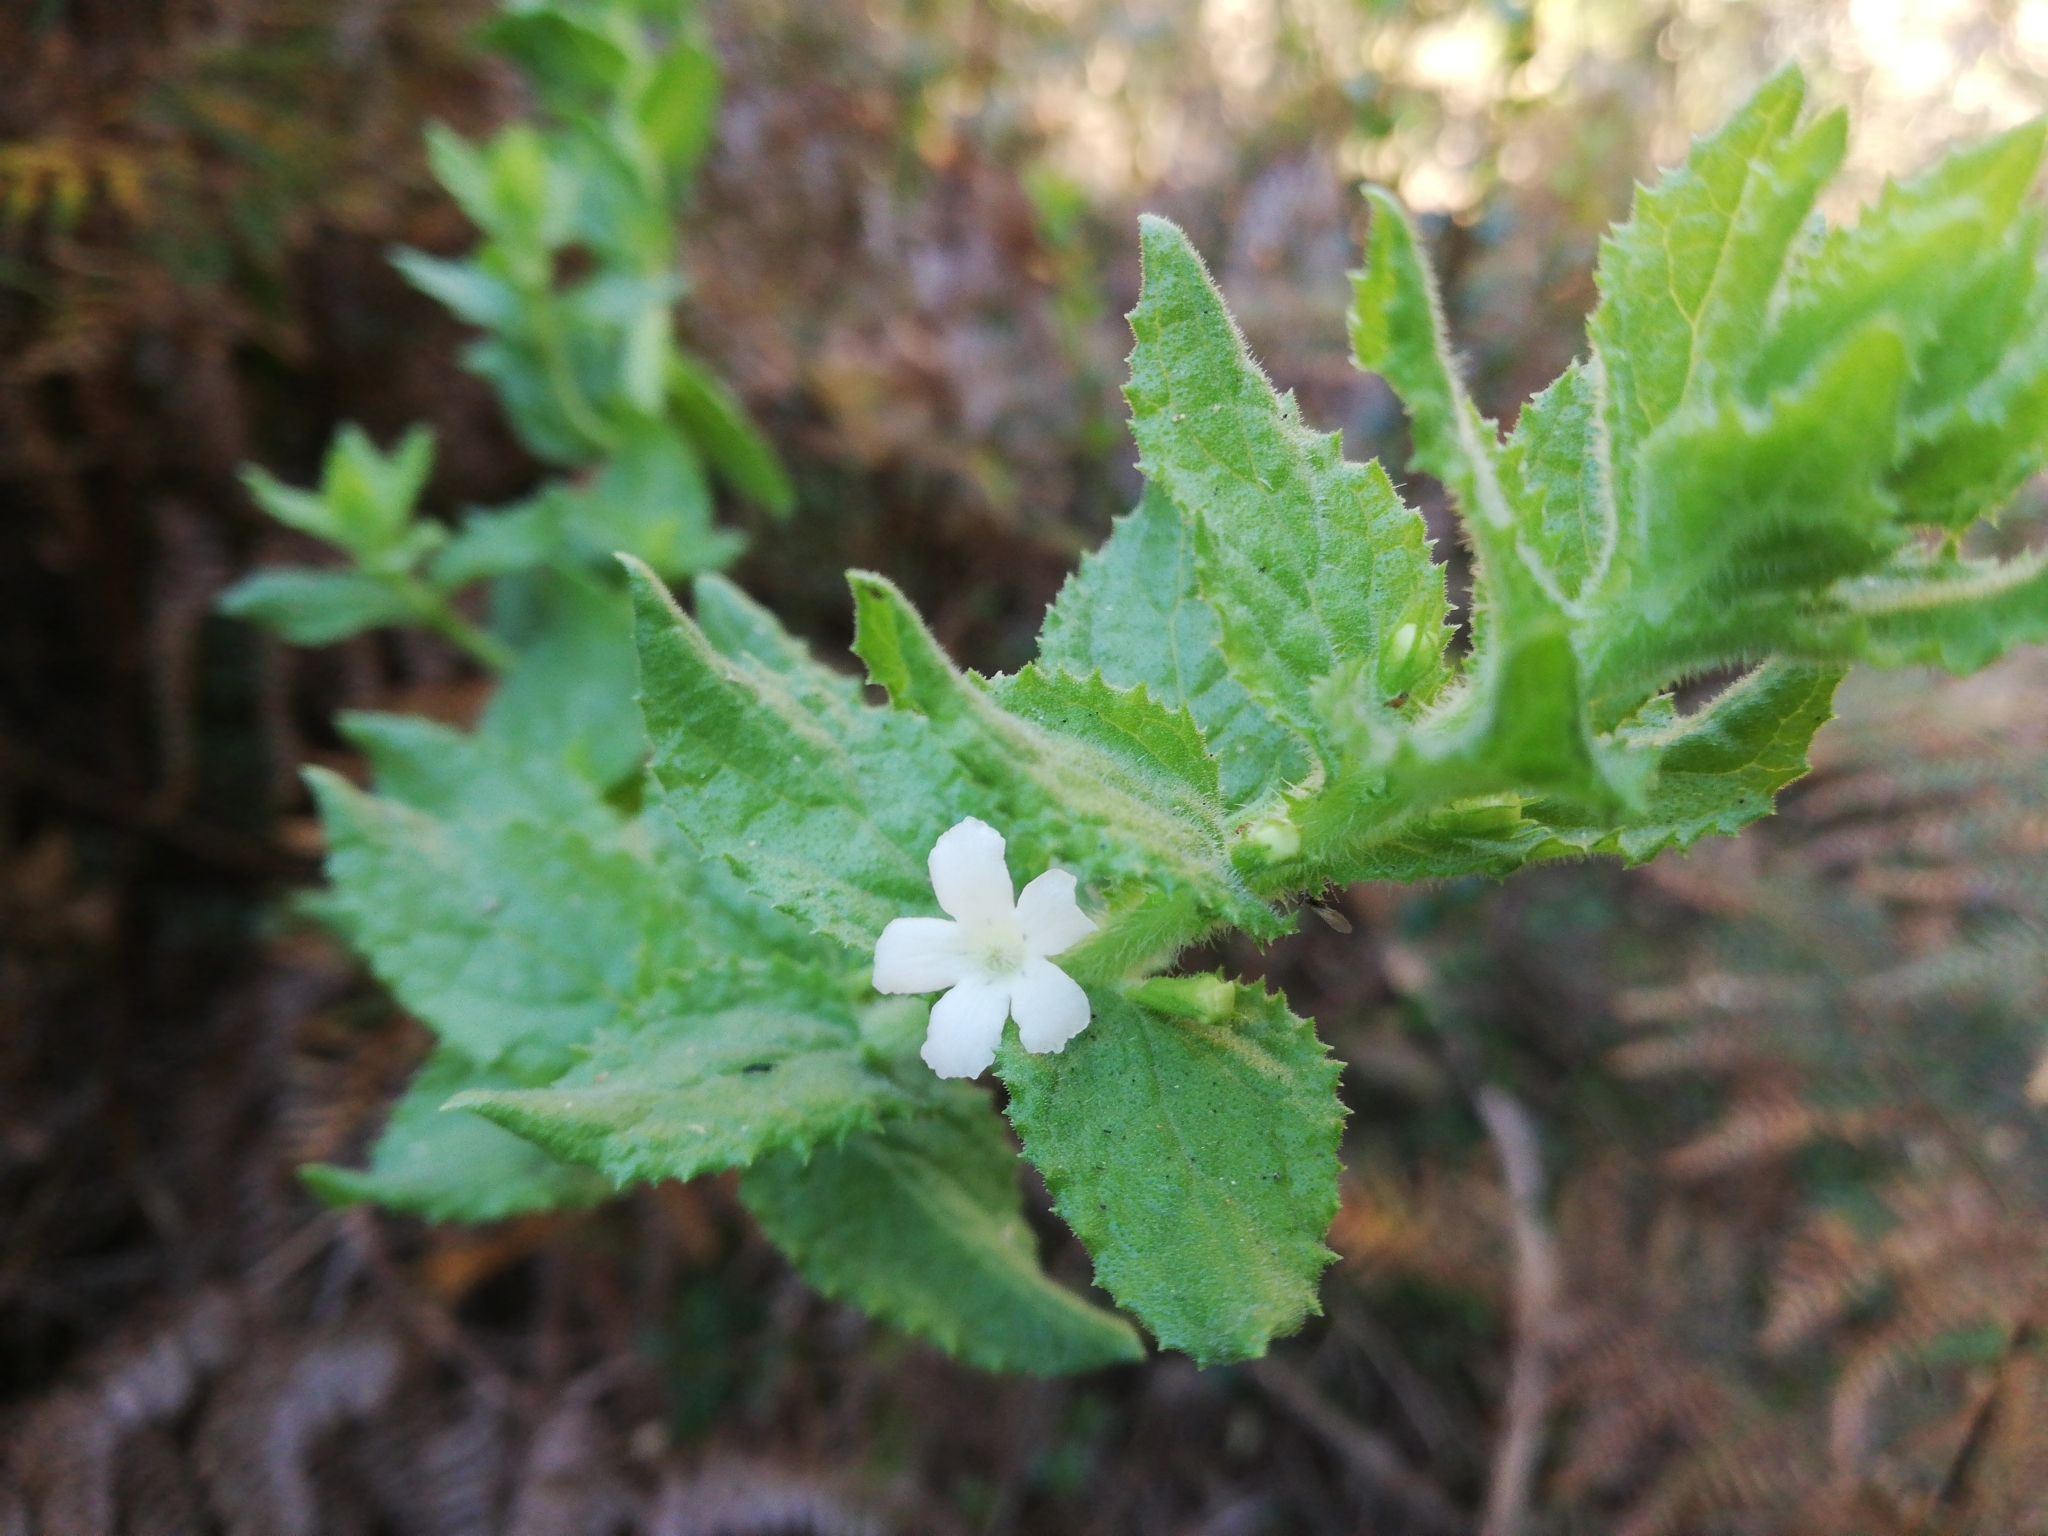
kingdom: Plantae
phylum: Tracheophyta
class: Magnoliopsida
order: Lamiales
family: Scrophulariaceae
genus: Oftia
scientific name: Oftia africana
